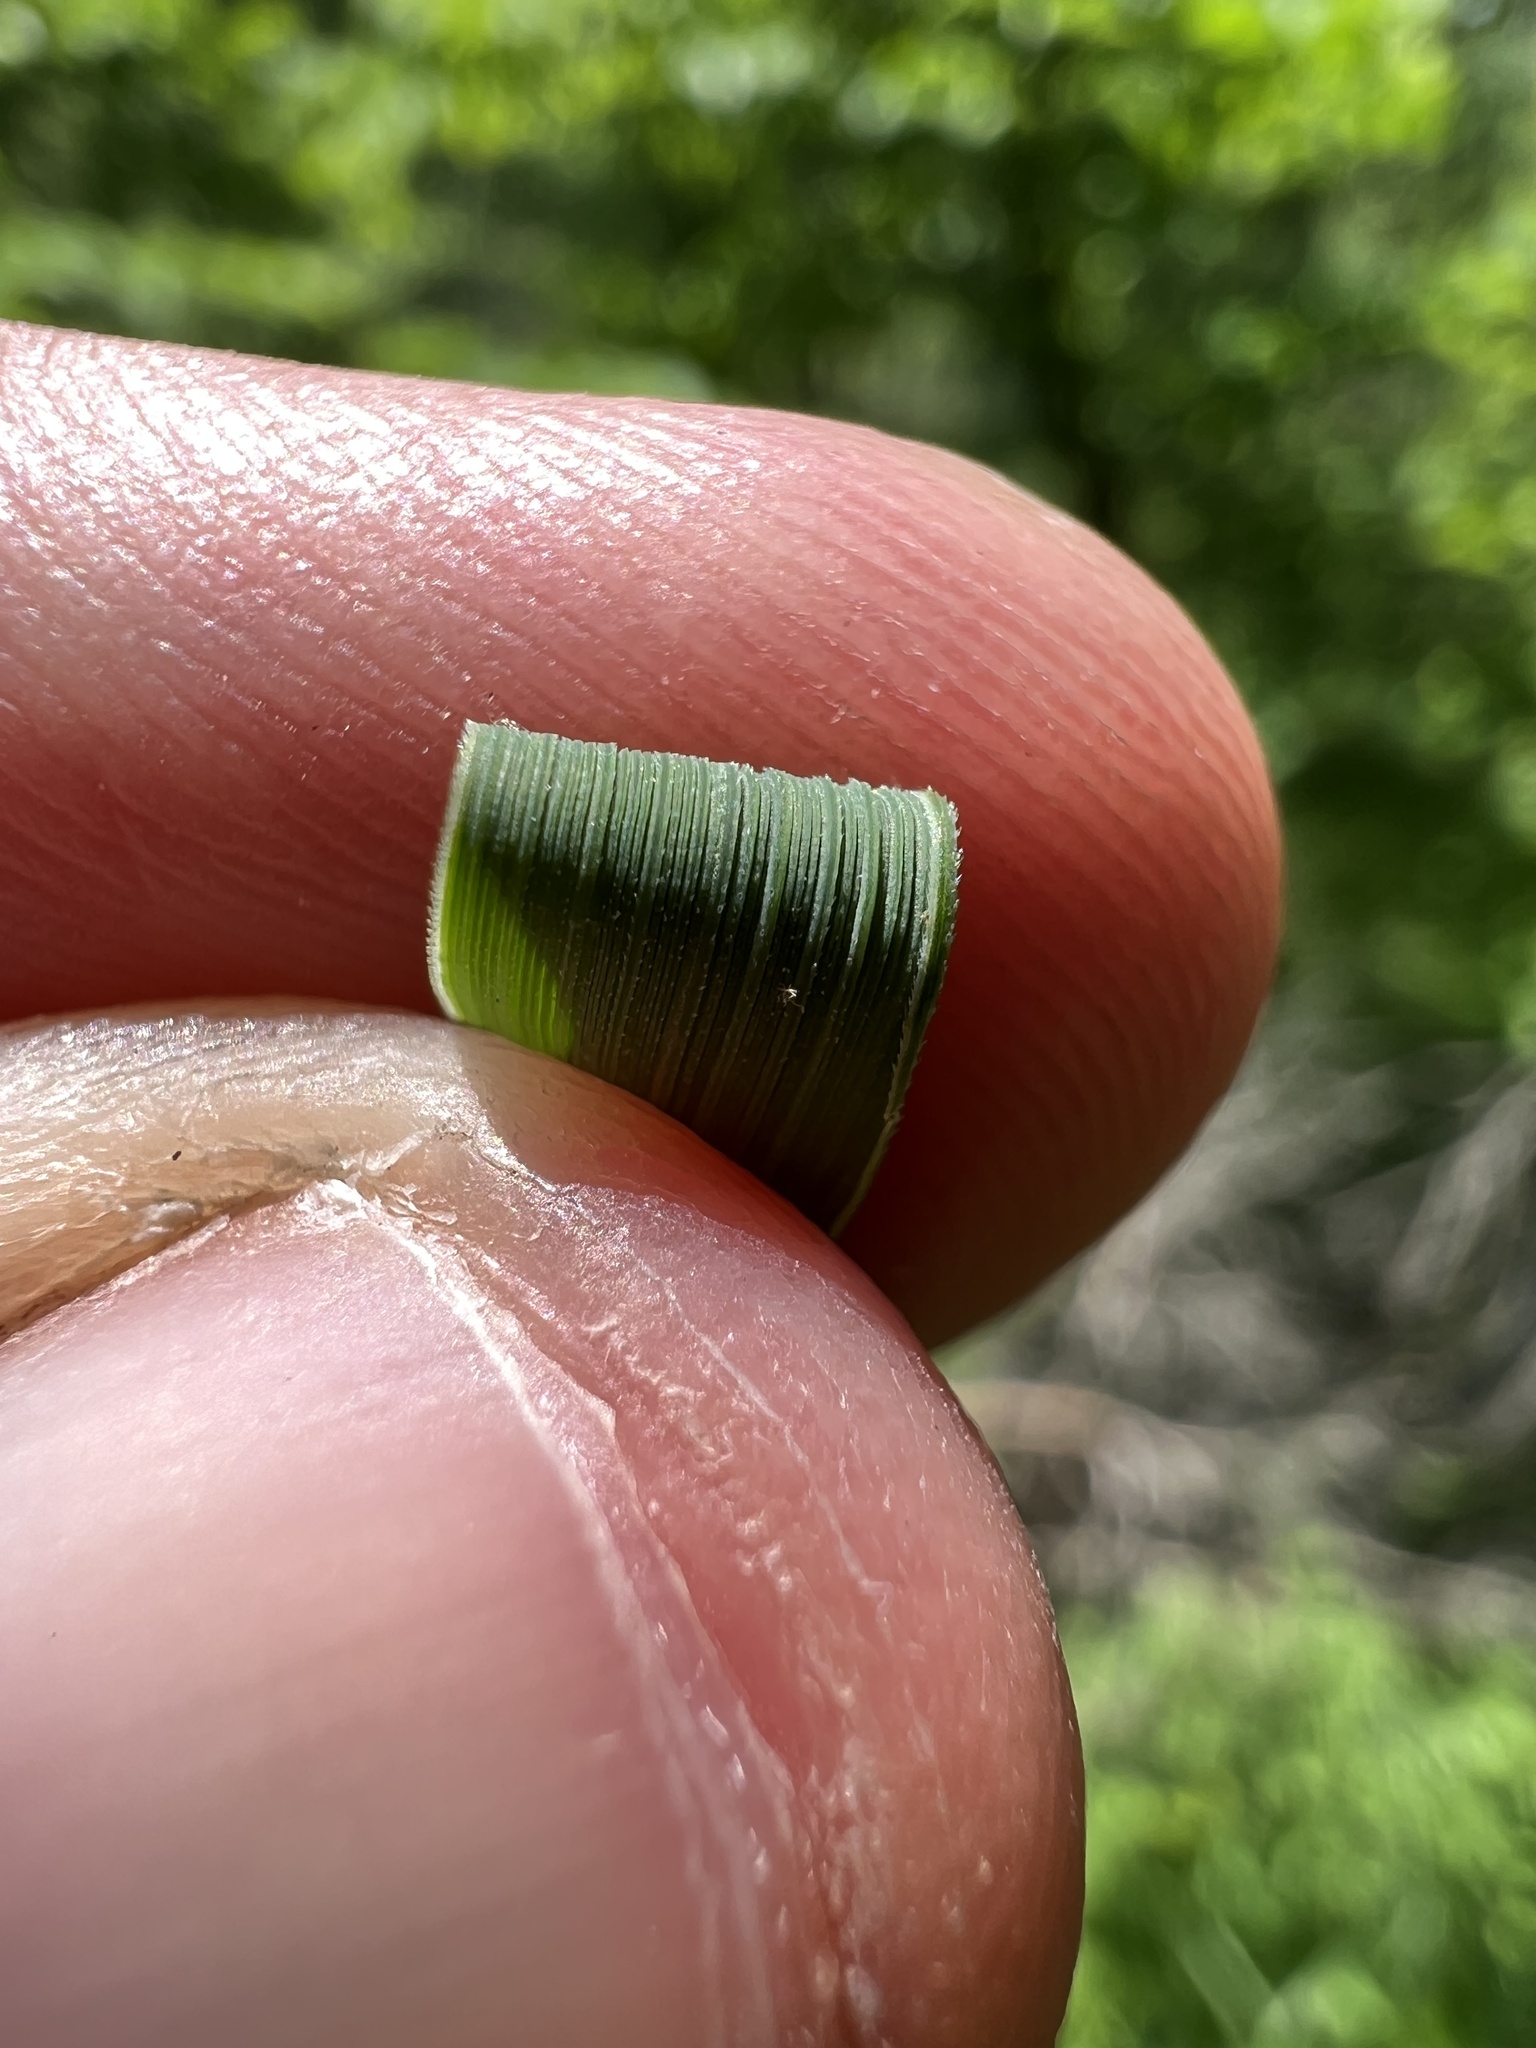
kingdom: Plantae
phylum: Tracheophyta
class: Liliopsida
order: Poales
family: Poaceae
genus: Sporobolus
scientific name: Sporobolus michauxianus
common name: Freshwater cordgrass
